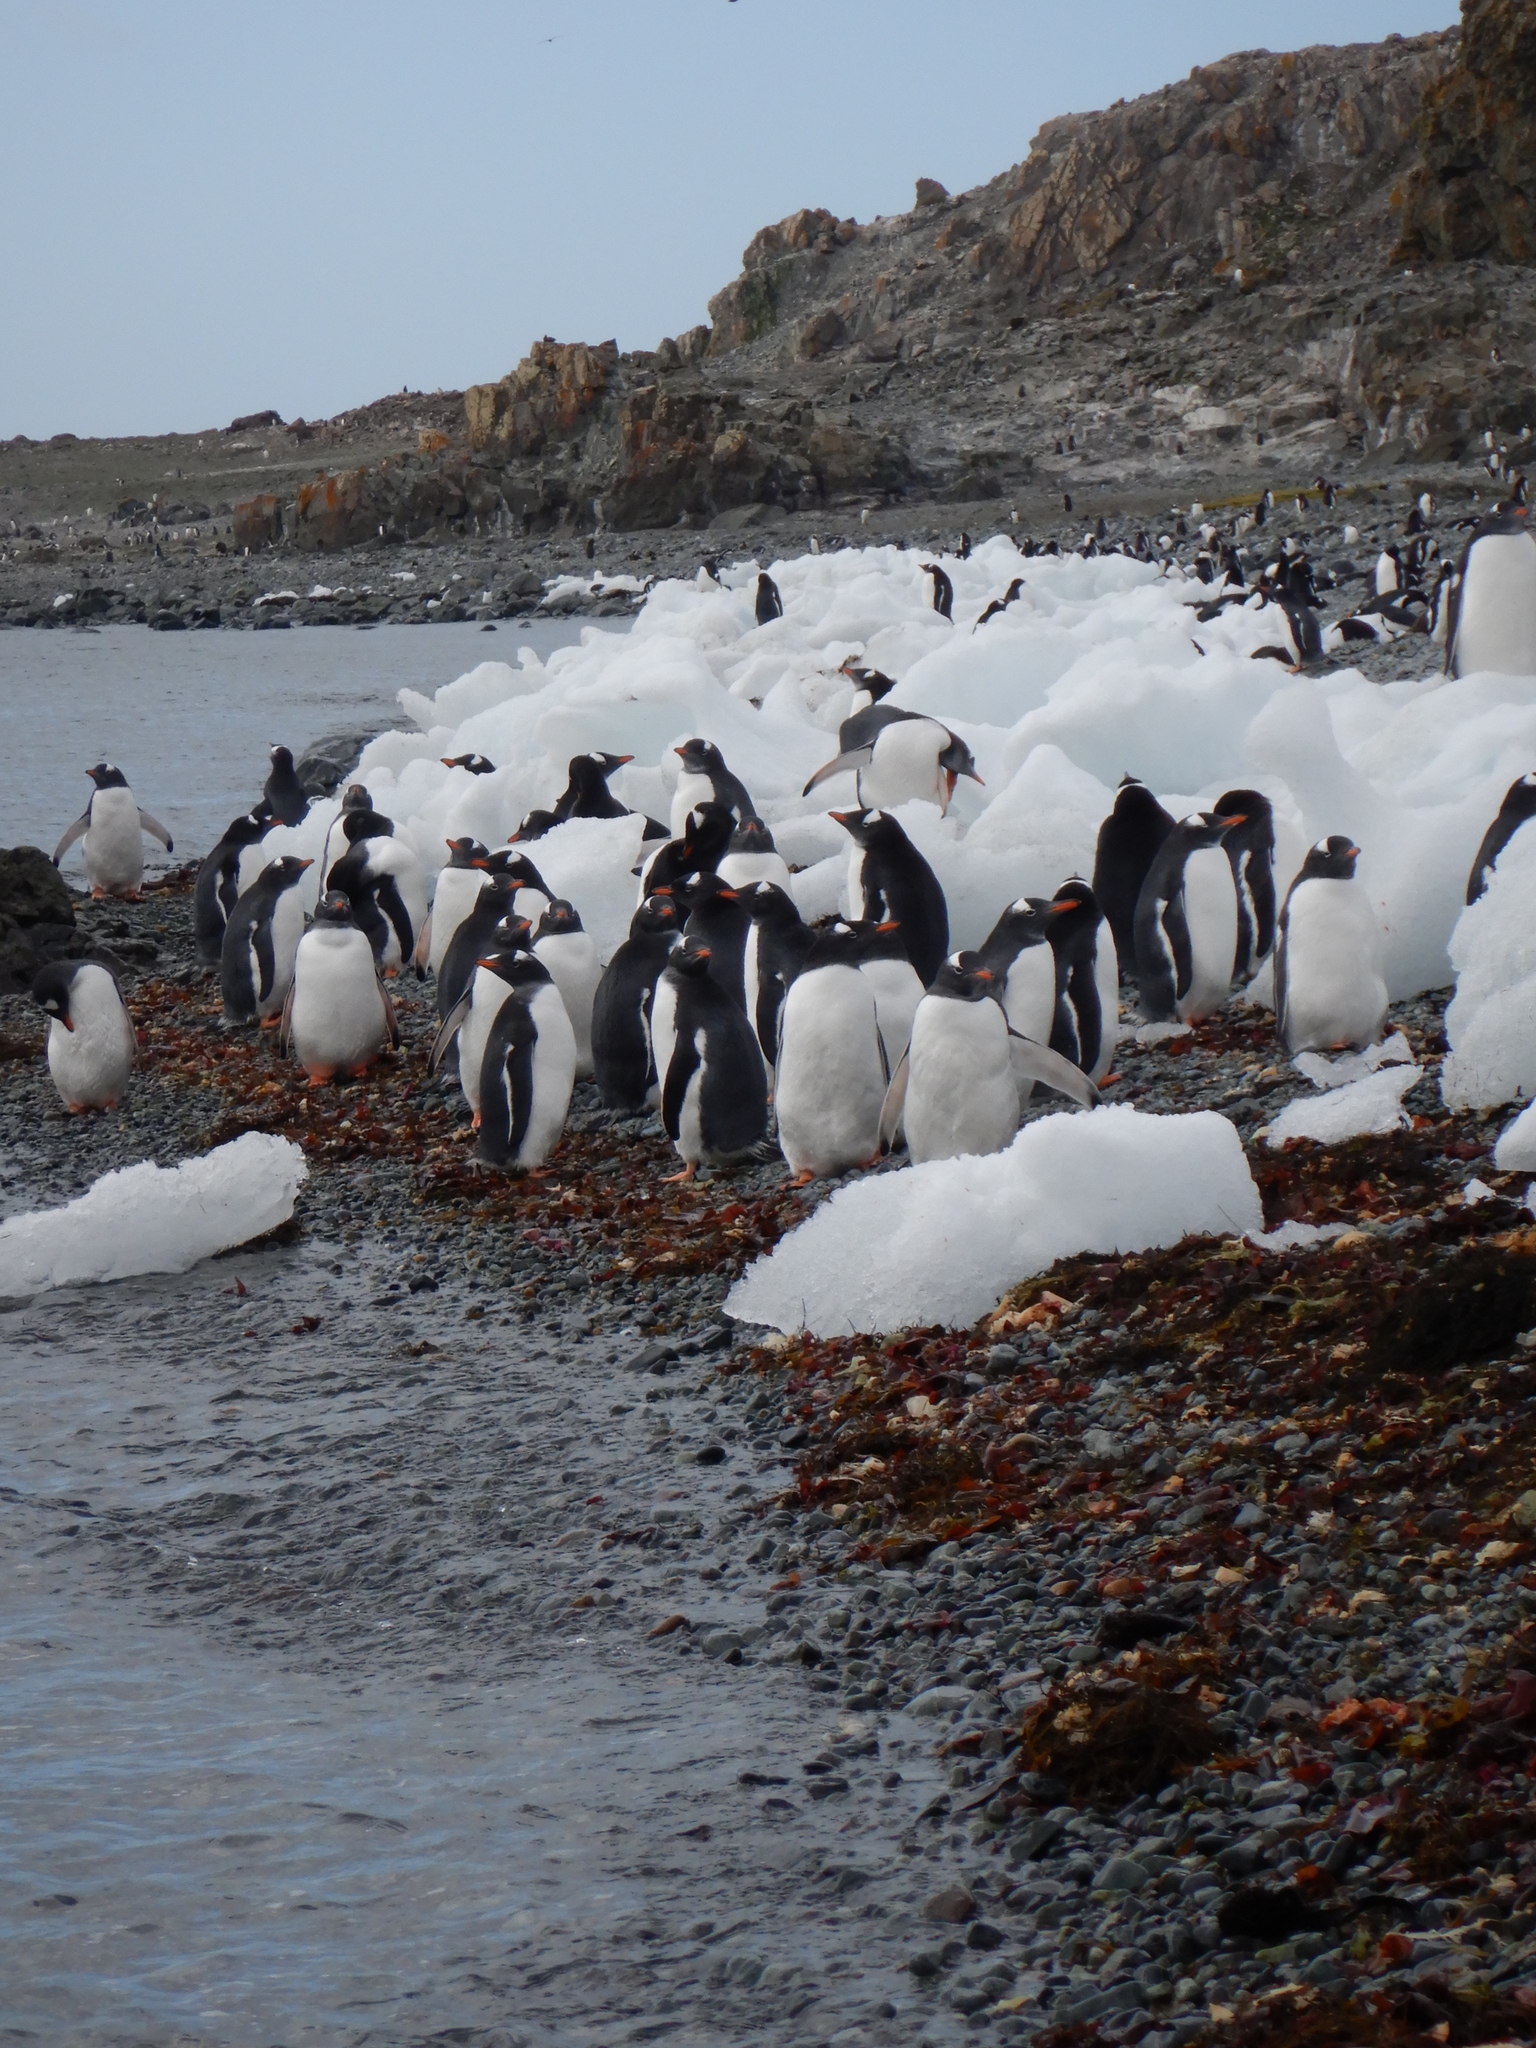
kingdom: Animalia
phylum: Chordata
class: Aves
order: Sphenisciformes
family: Spheniscidae
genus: Pygoscelis
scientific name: Pygoscelis papua
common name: Gentoo penguin
